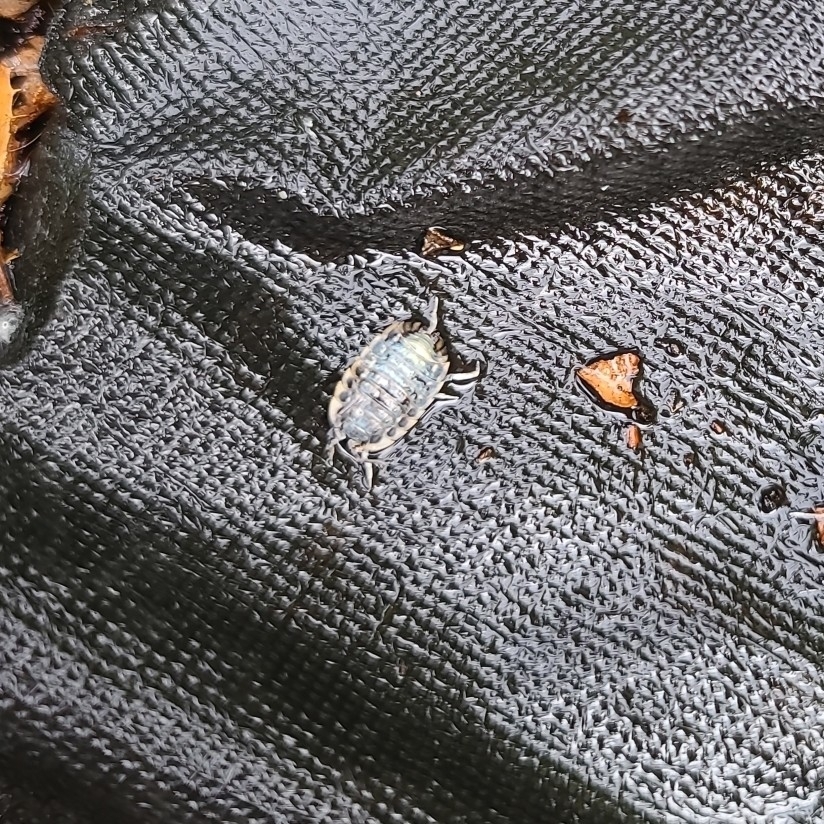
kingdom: Animalia
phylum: Arthropoda
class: Malacostraca
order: Isopoda
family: Oniscidae
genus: Oniscus
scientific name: Oniscus asellus
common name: Common shiny woodlouse
